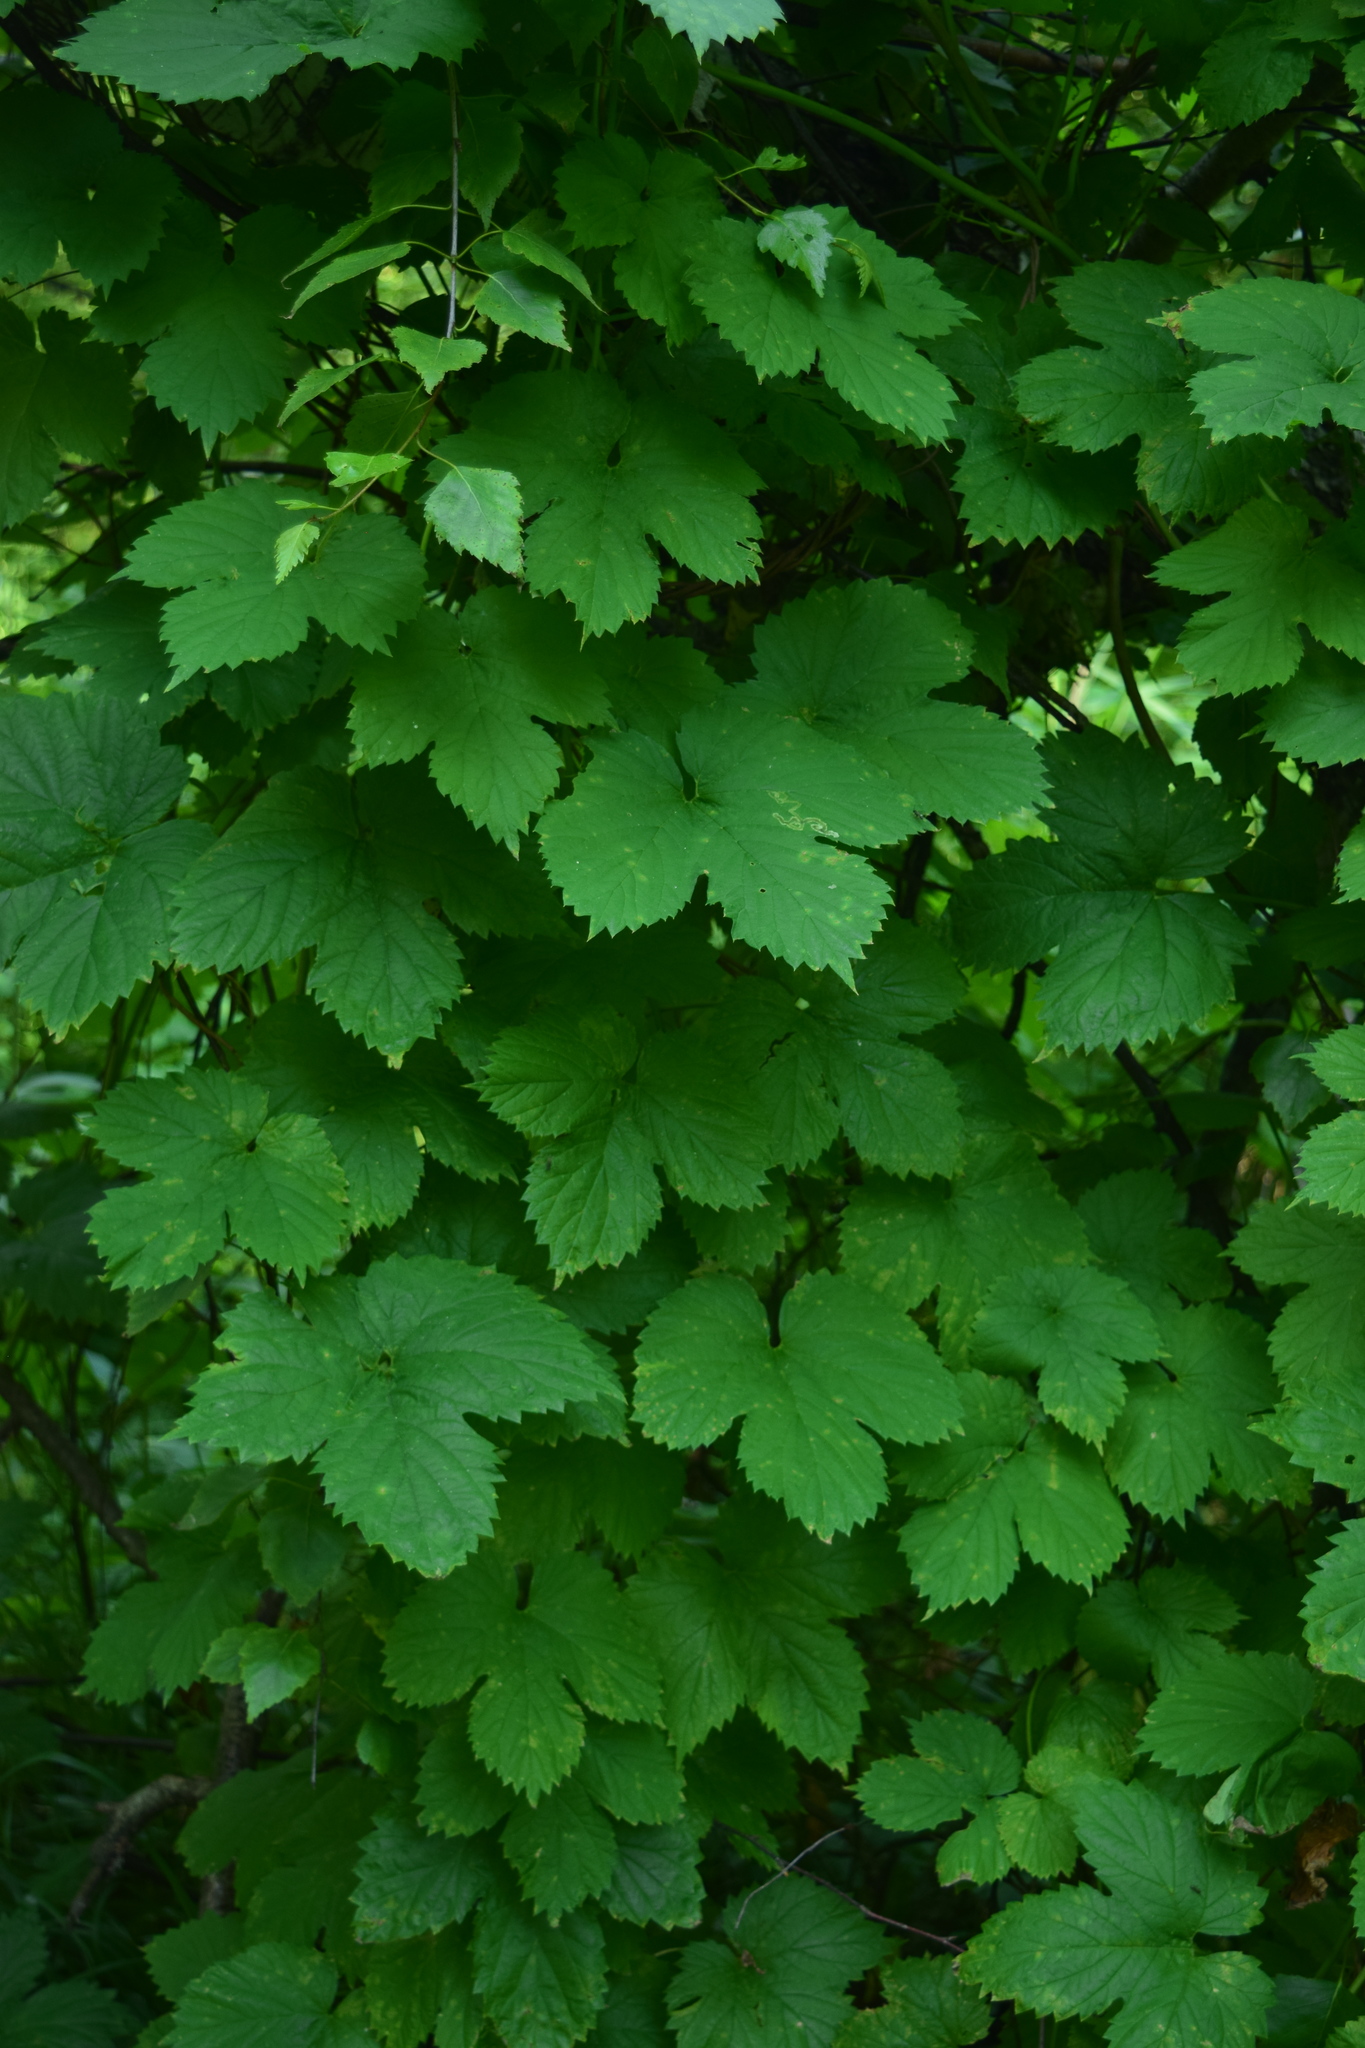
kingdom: Plantae
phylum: Tracheophyta
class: Magnoliopsida
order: Rosales
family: Cannabaceae
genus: Humulus
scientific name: Humulus lupulus
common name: Hop
